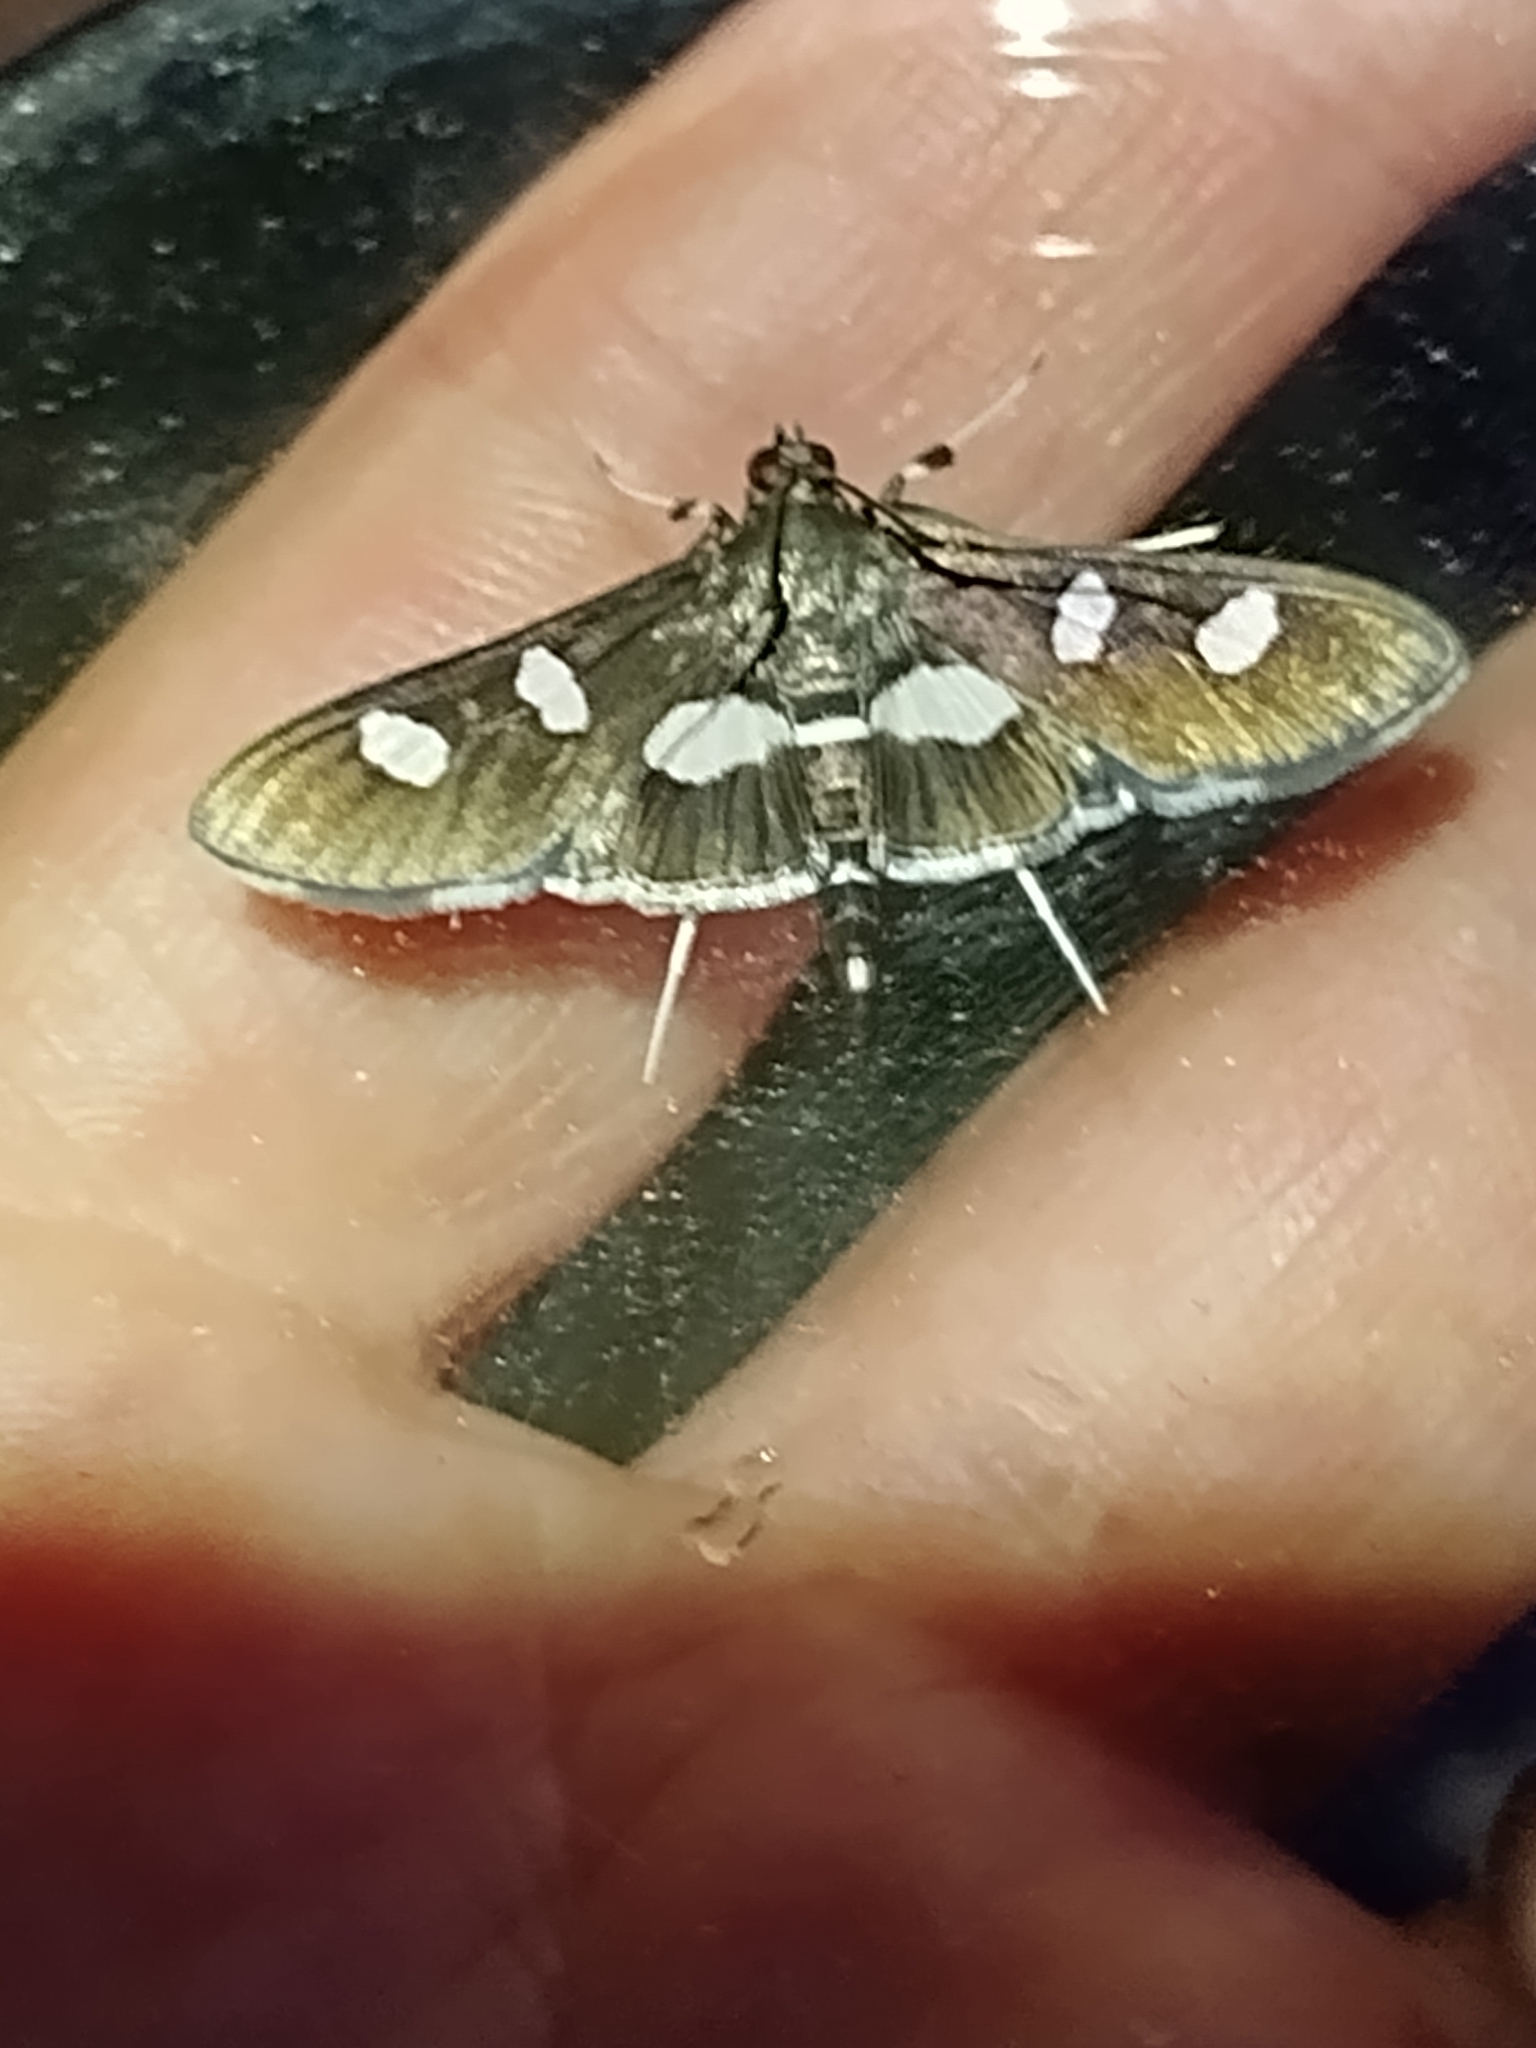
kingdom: Animalia
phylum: Arthropoda
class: Insecta
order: Lepidoptera
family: Crambidae
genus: Desmia
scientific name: Desmia funeralis
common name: Grape leaf folder moth
